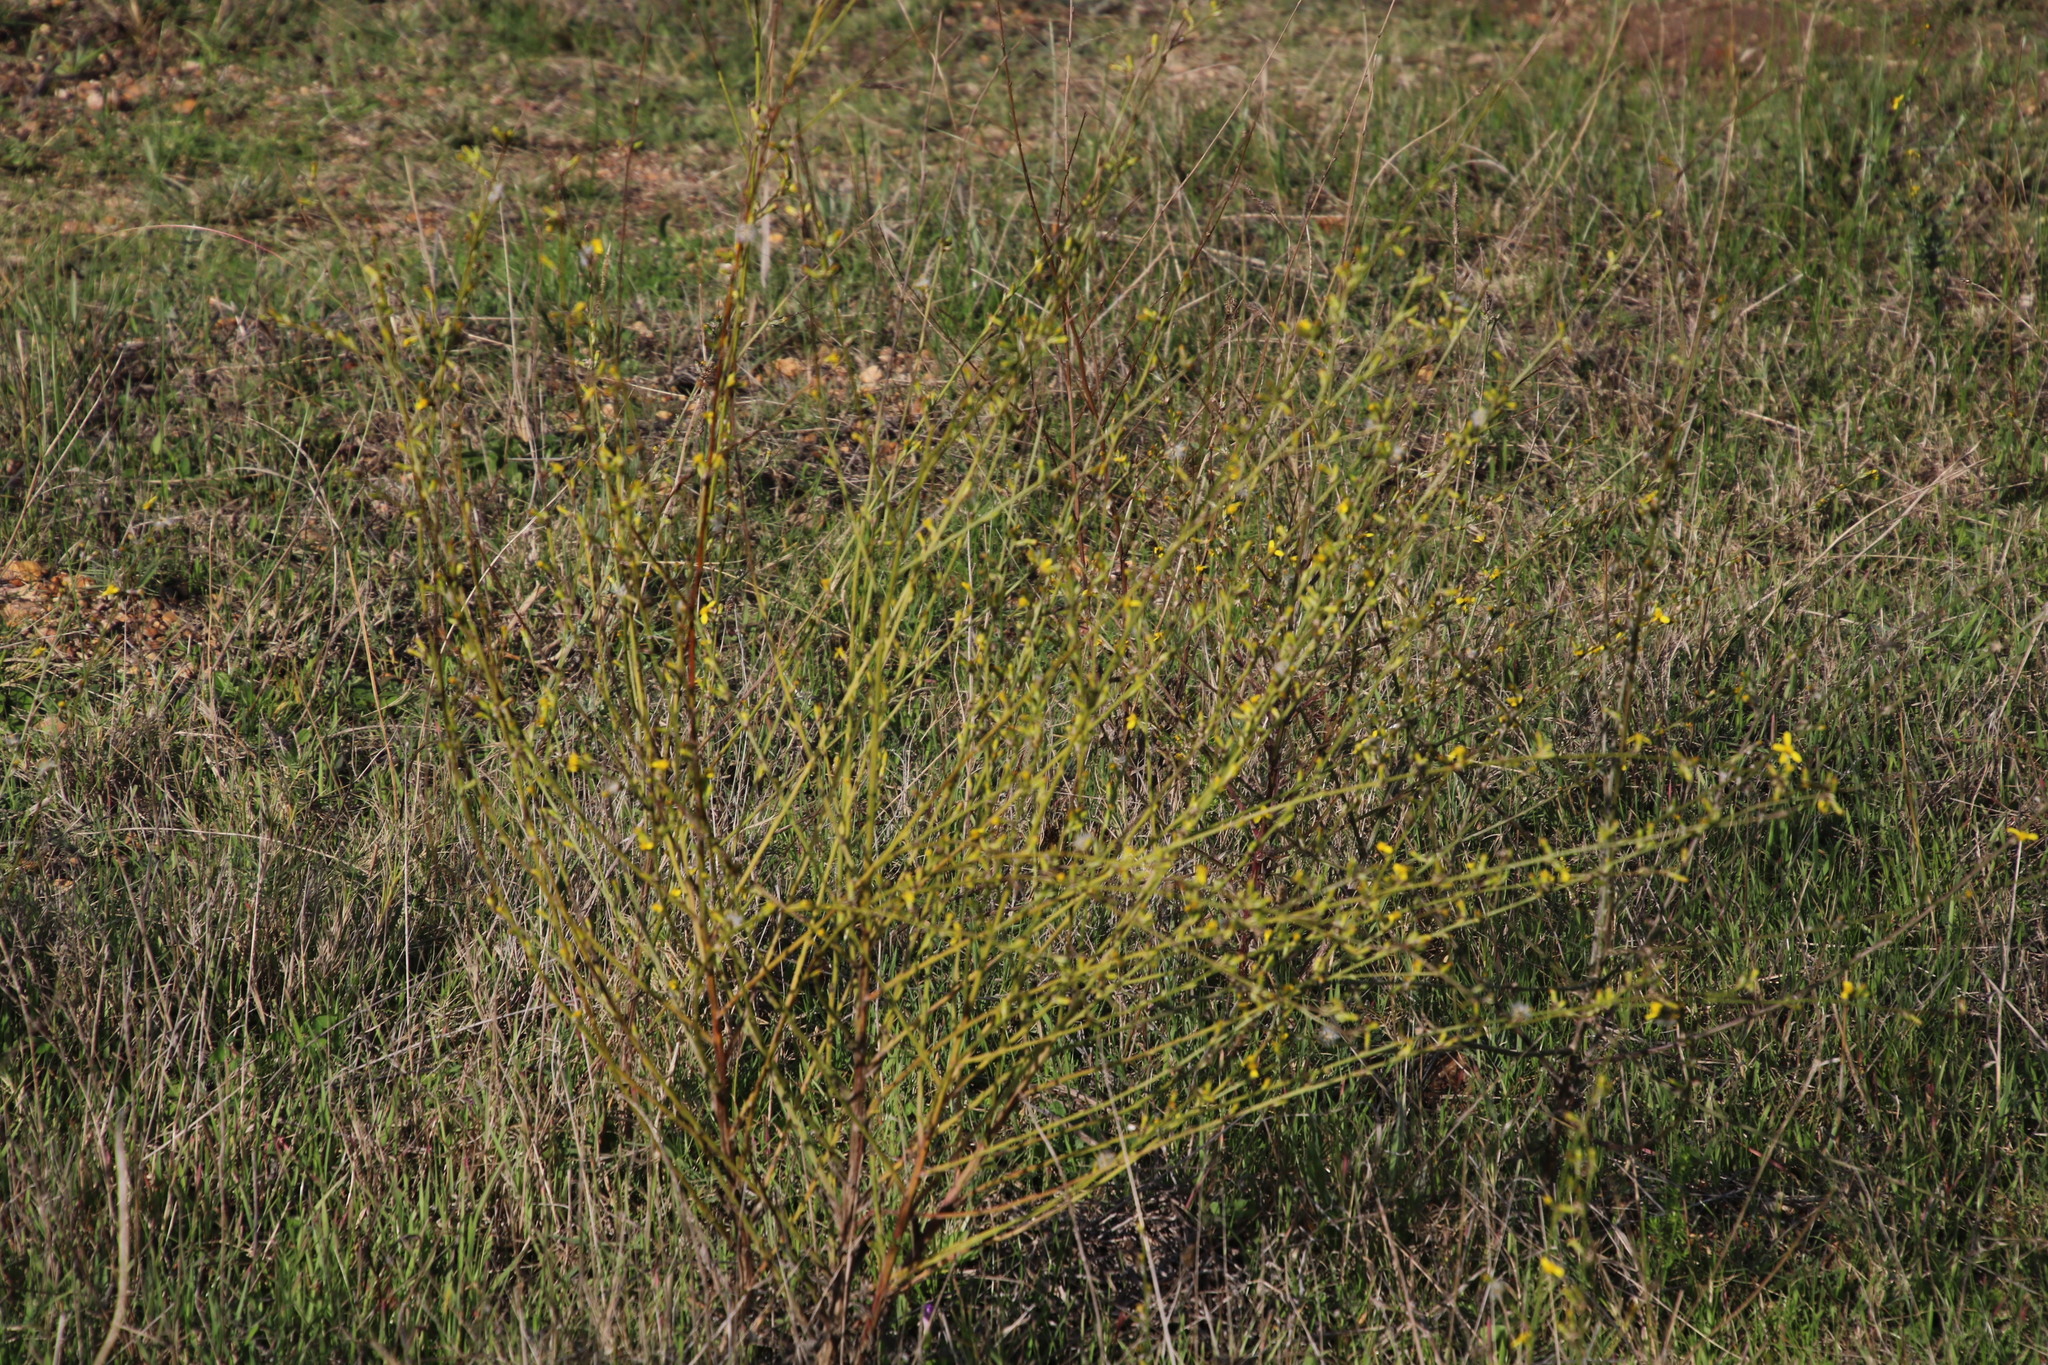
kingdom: Plantae
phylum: Tracheophyta
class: Magnoliopsida
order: Asterales
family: Asteraceae
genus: Senecio
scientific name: Senecio pubigerus
